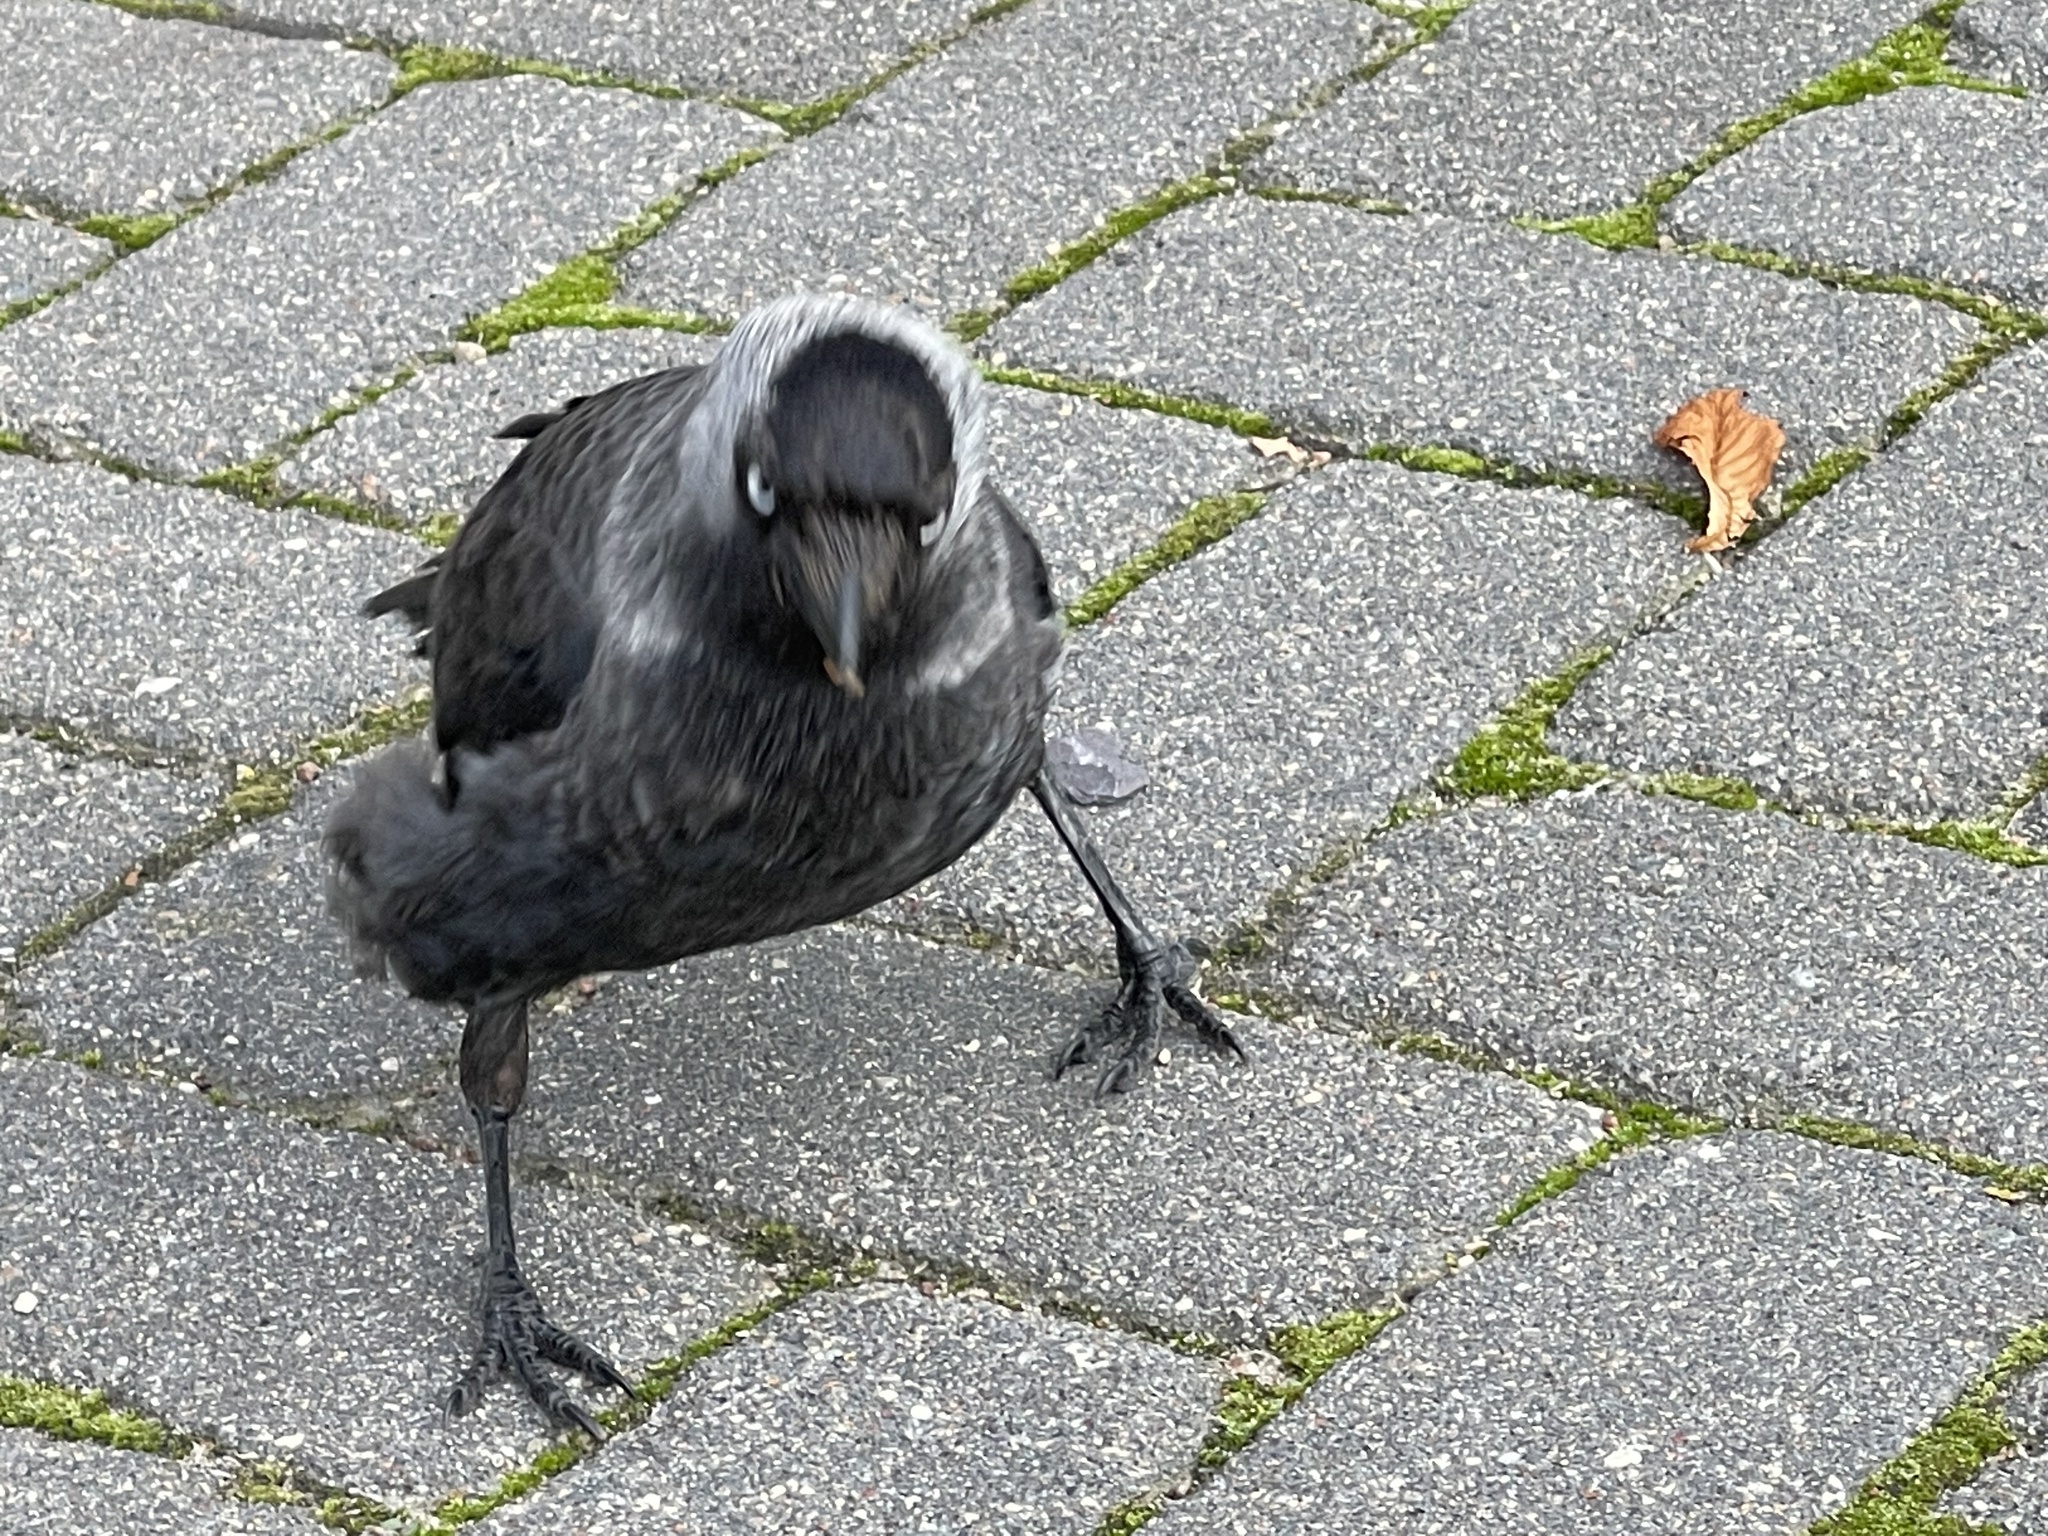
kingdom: Animalia
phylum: Chordata
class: Aves
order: Passeriformes
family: Corvidae
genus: Coloeus
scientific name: Coloeus monedula
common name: Western jackdaw
